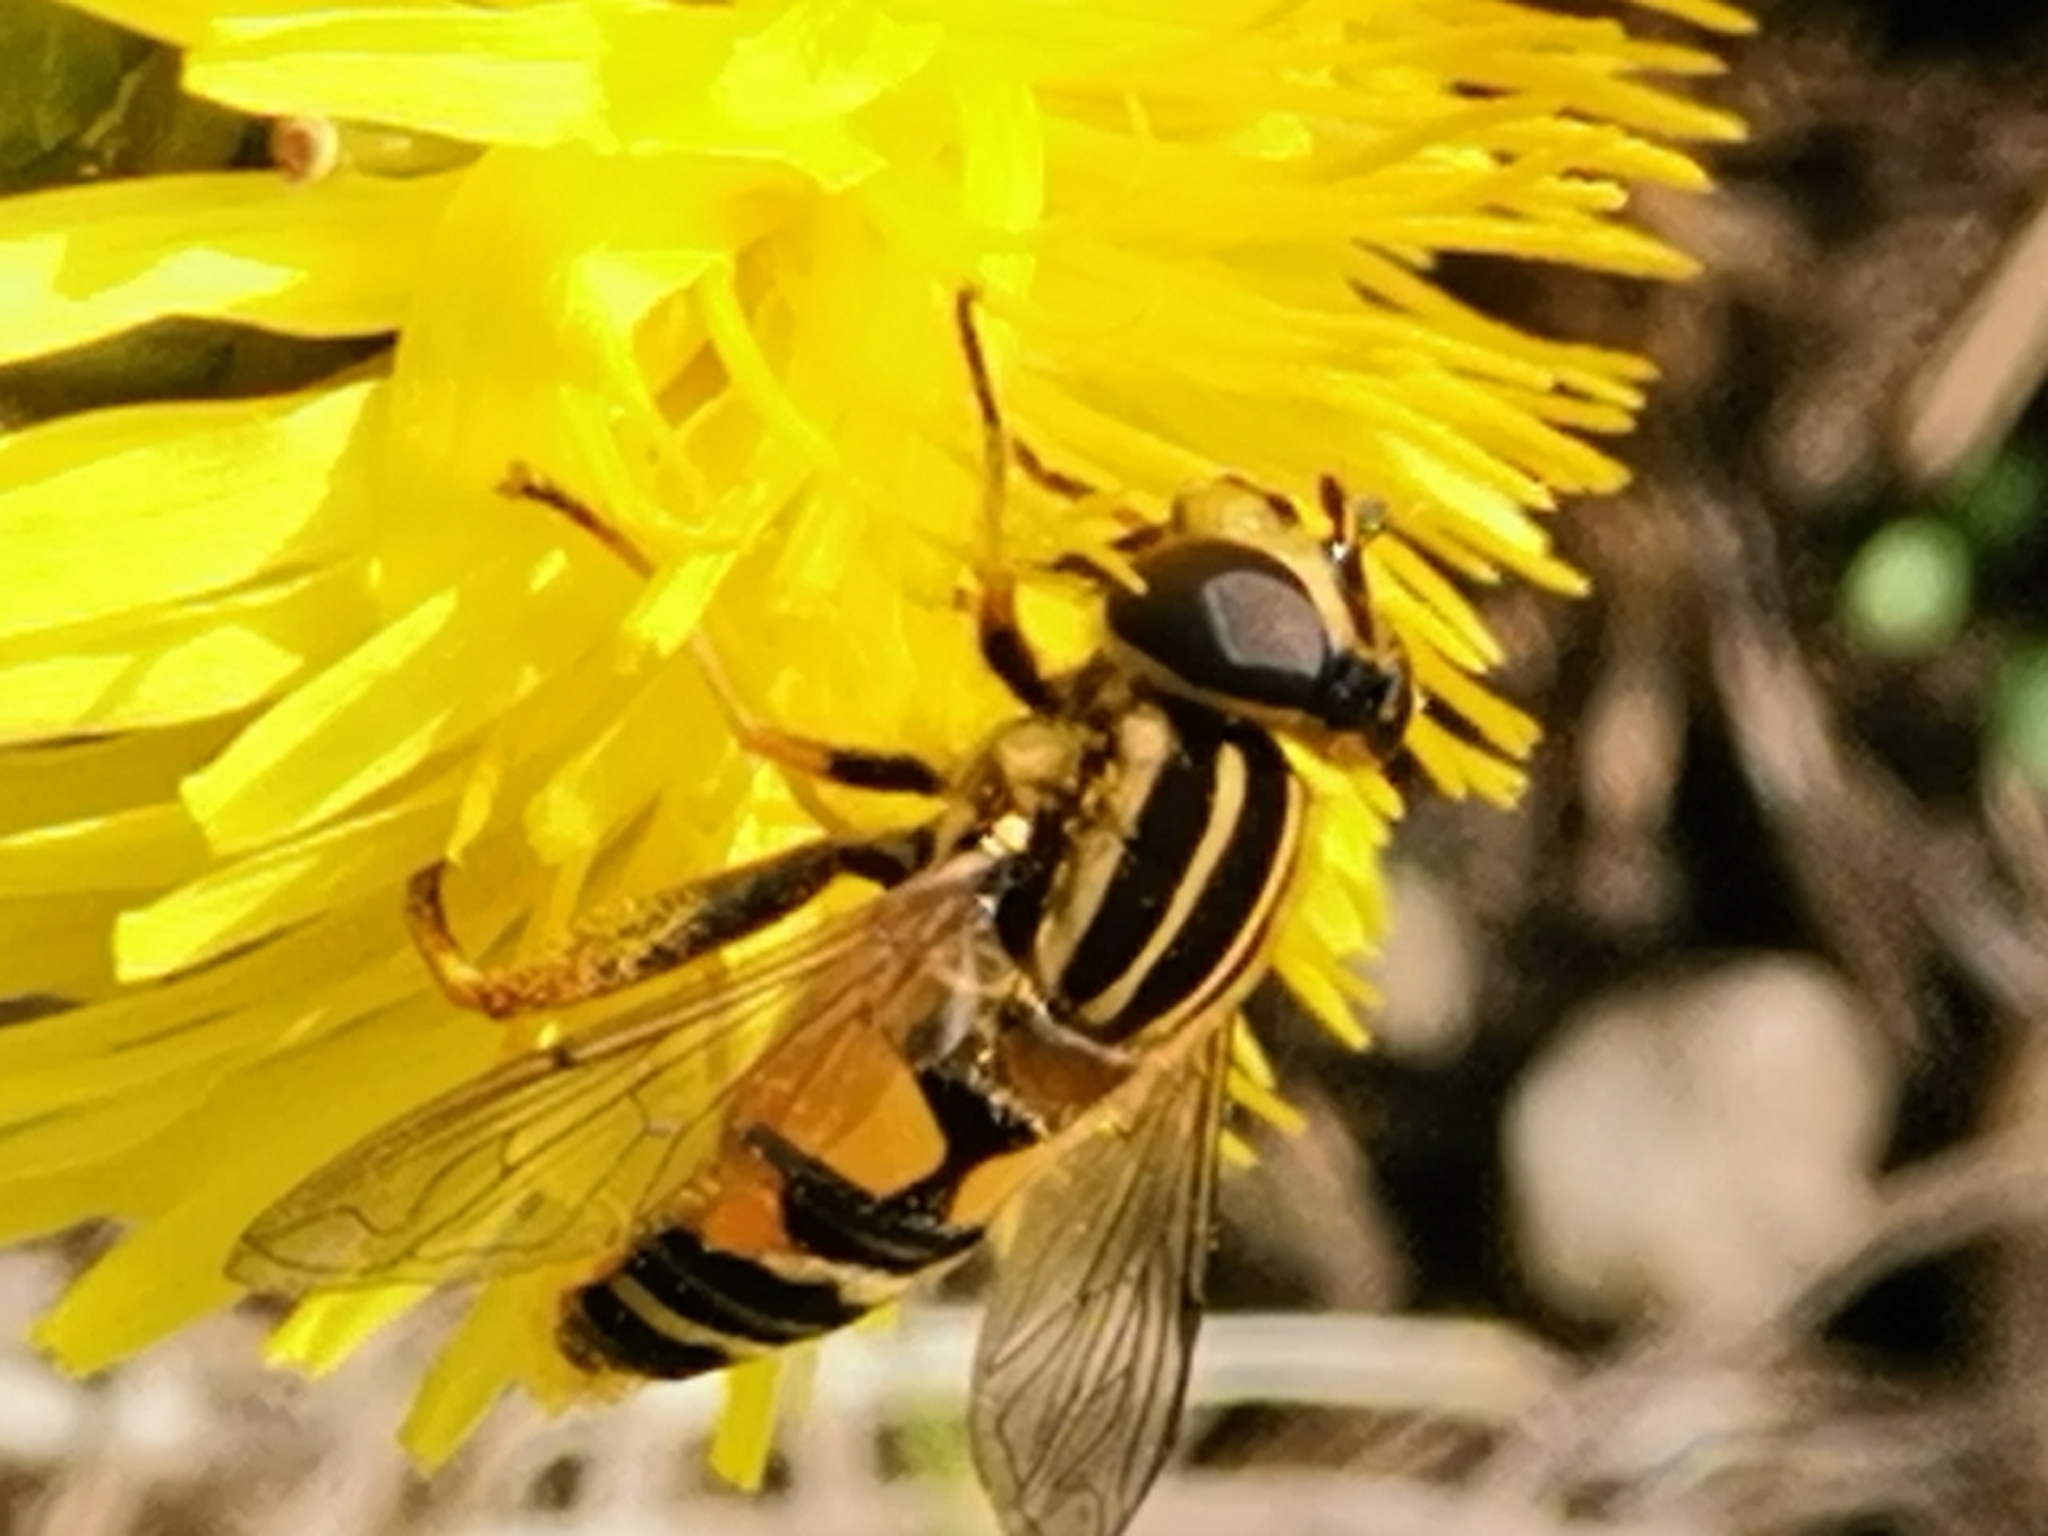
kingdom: Animalia
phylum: Arthropoda
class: Insecta
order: Diptera
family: Syrphidae
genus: Helophilus
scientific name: Helophilus pendulus
